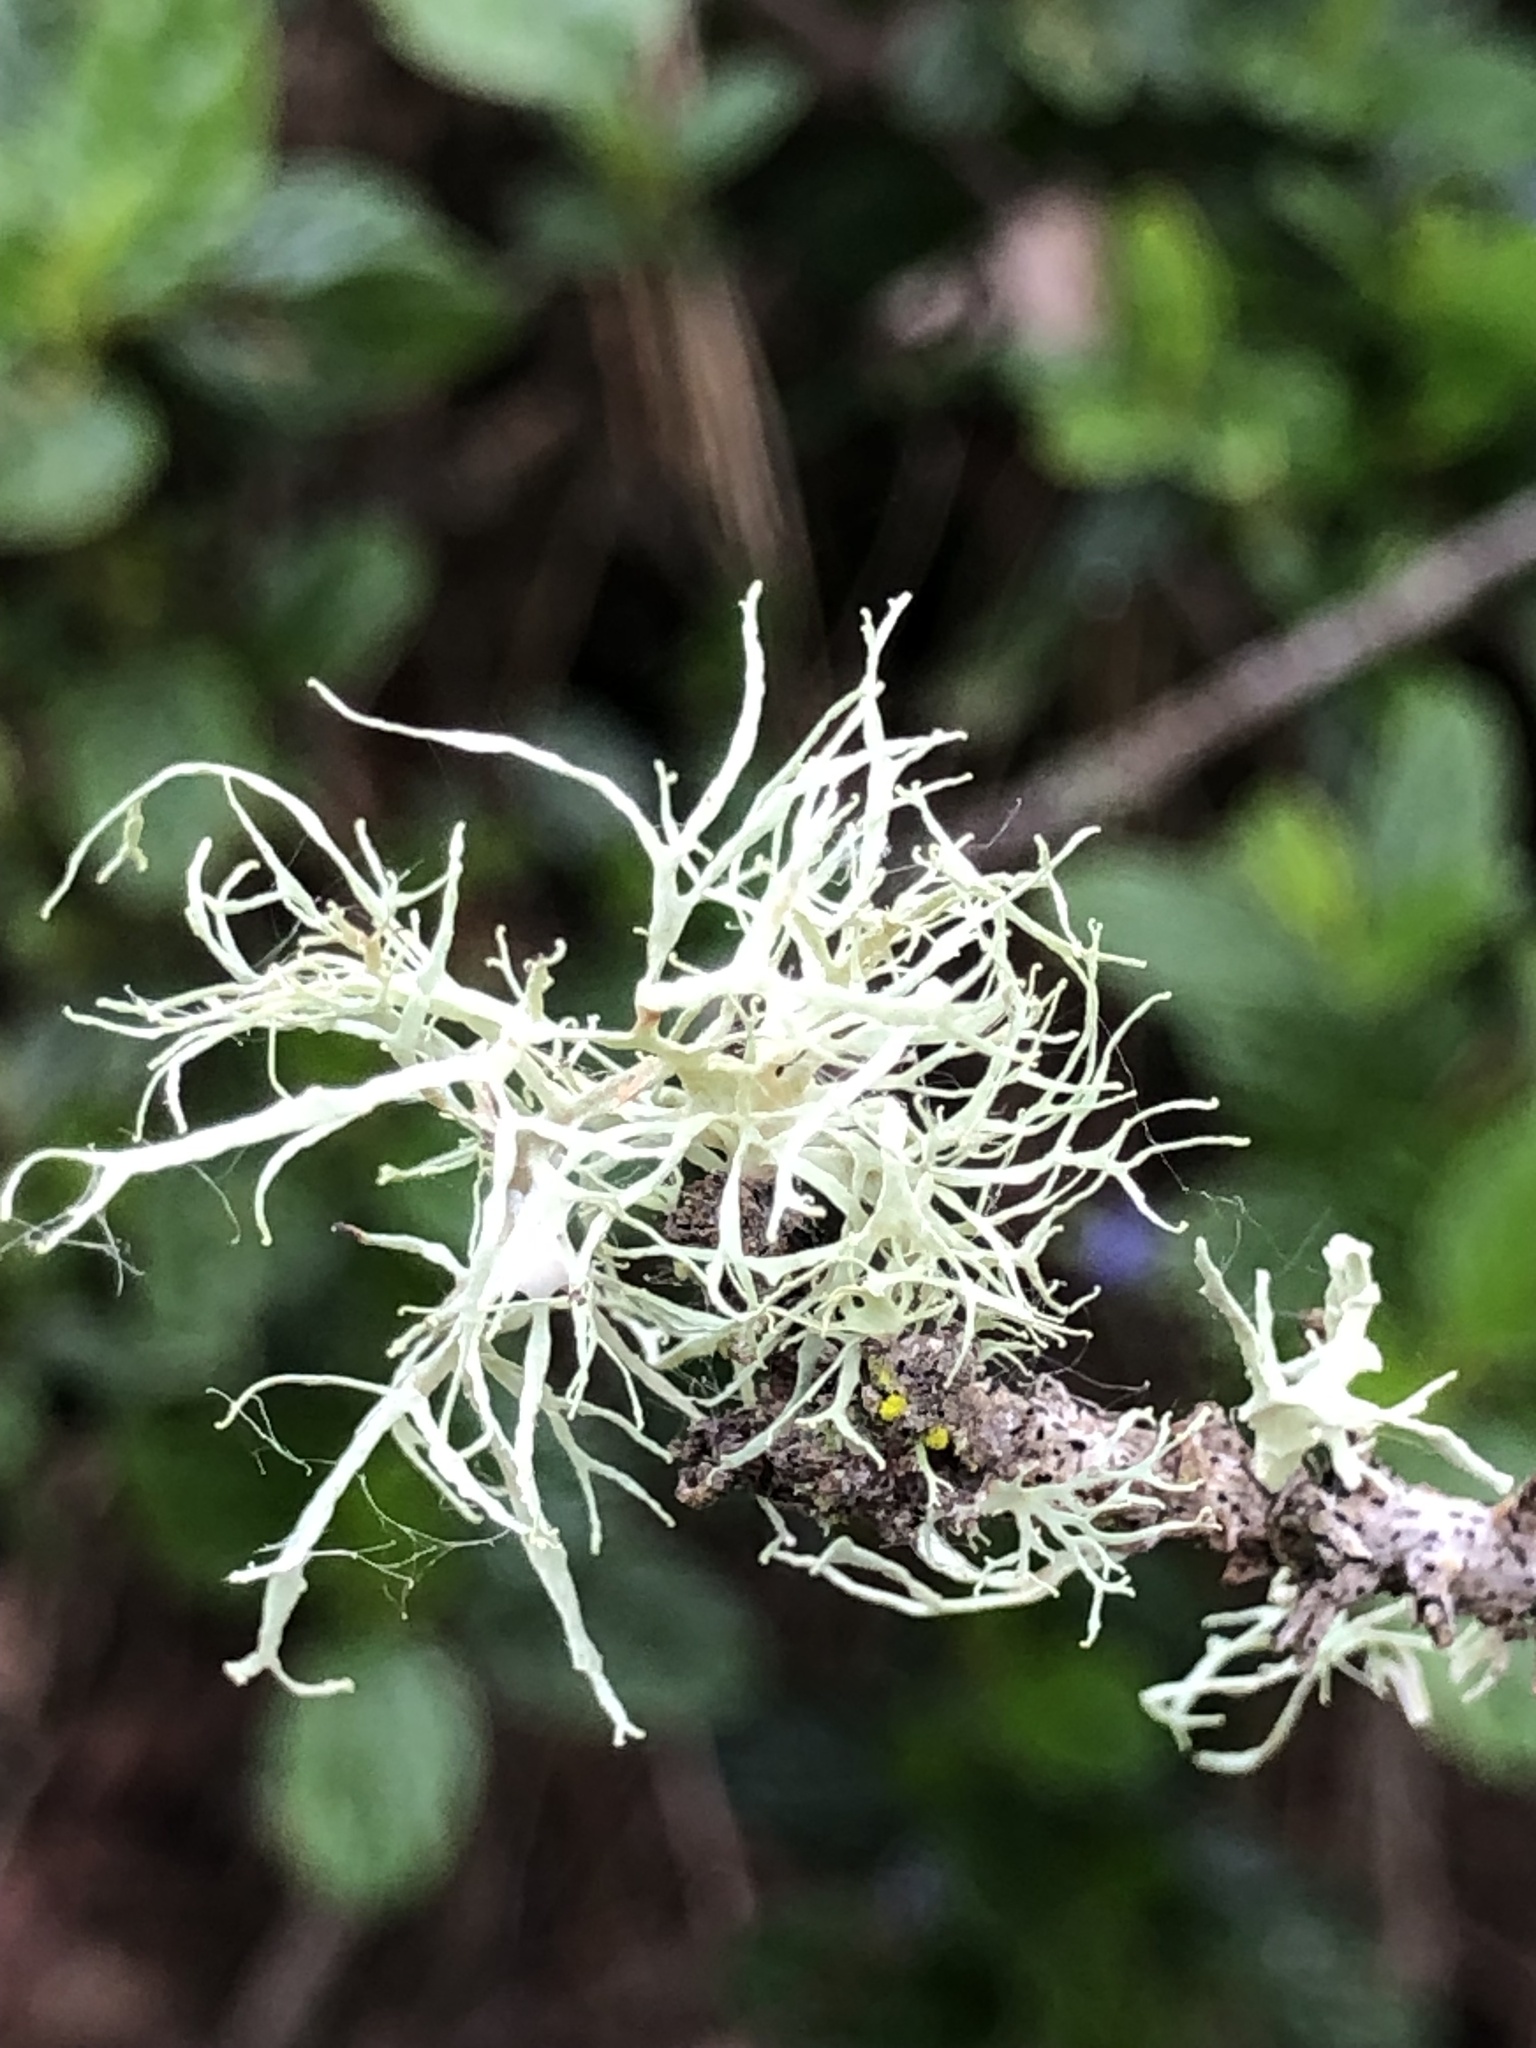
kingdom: Fungi
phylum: Ascomycota
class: Lecanoromycetes
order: Lecanorales
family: Ramalinaceae
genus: Ramalina
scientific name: Ramalina farinacea
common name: Farinose cartilage lichen
